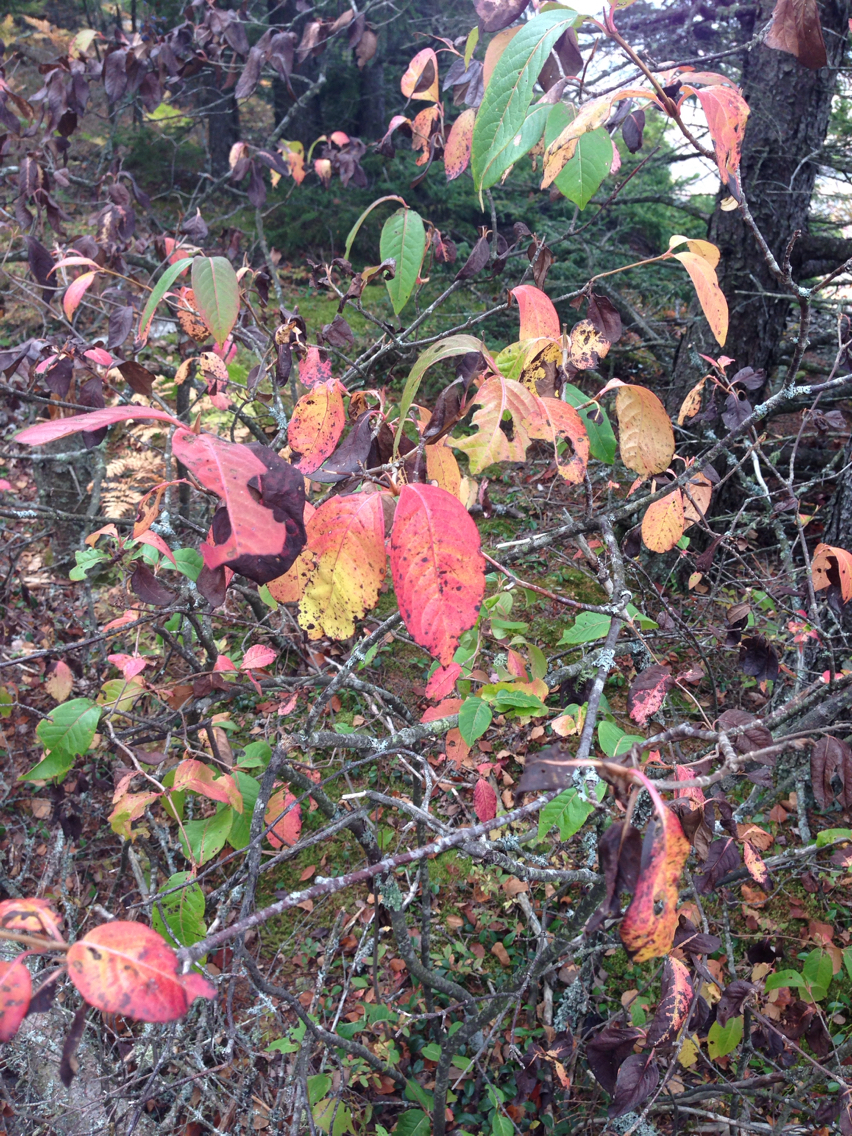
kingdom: Plantae
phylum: Tracheophyta
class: Magnoliopsida
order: Dipsacales
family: Viburnaceae
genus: Viburnum
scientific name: Viburnum cassinoides
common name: Swamp haw
